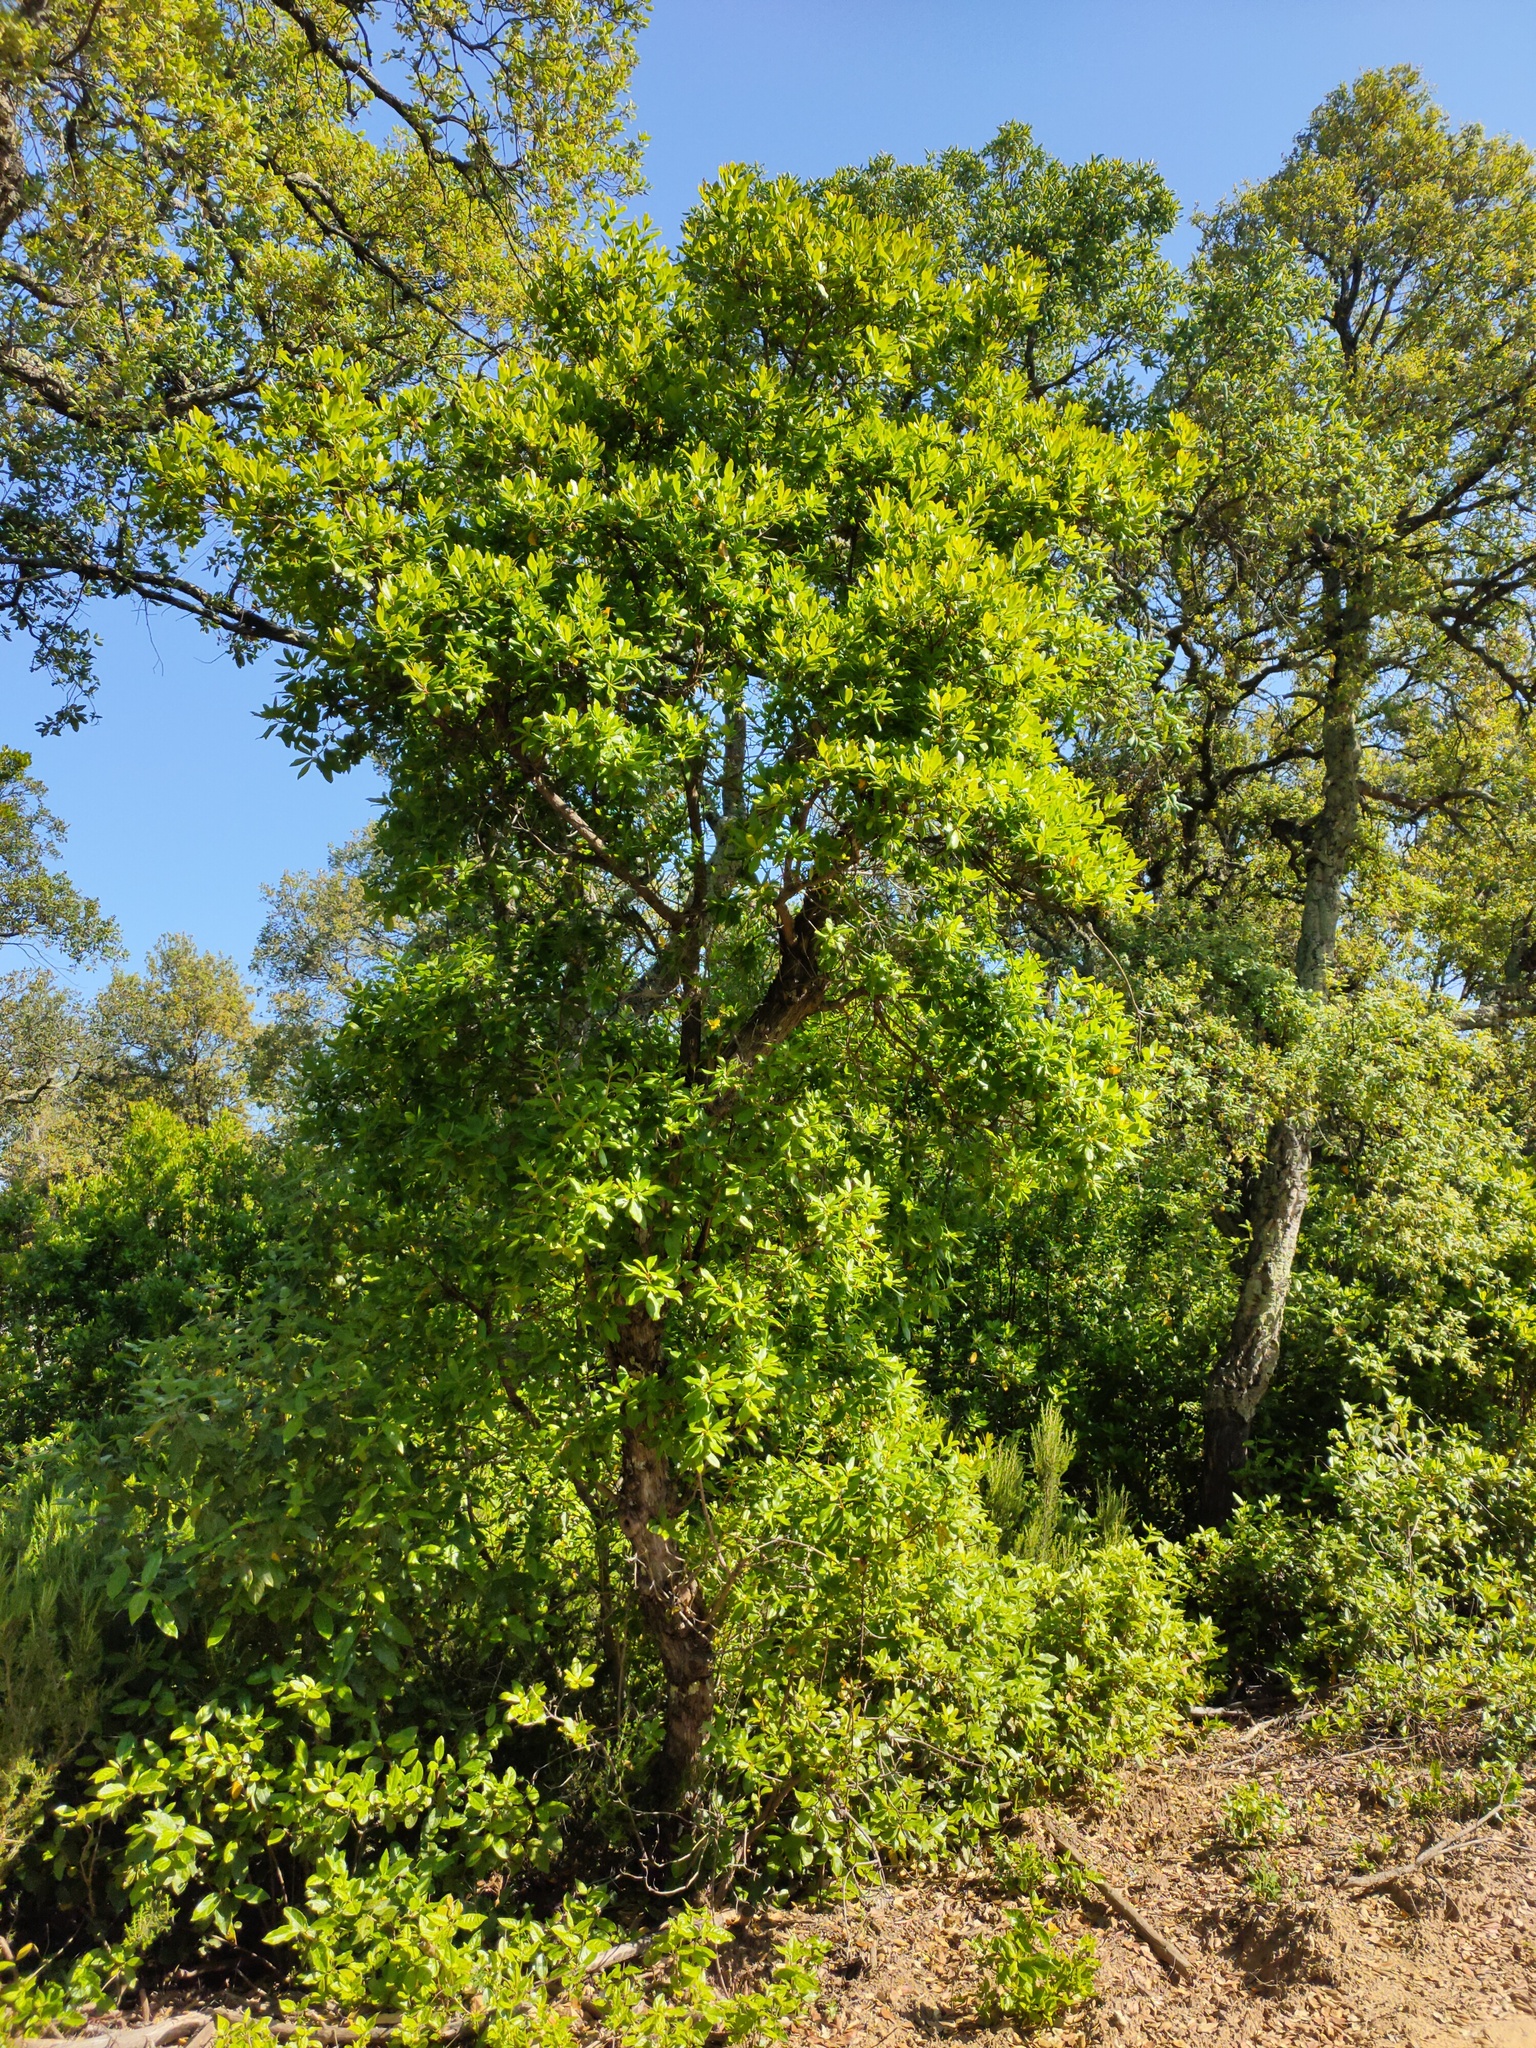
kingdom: Plantae
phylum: Tracheophyta
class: Magnoliopsida
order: Ericales
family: Ericaceae
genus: Arbutus
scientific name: Arbutus unedo
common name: Strawberry-tree
